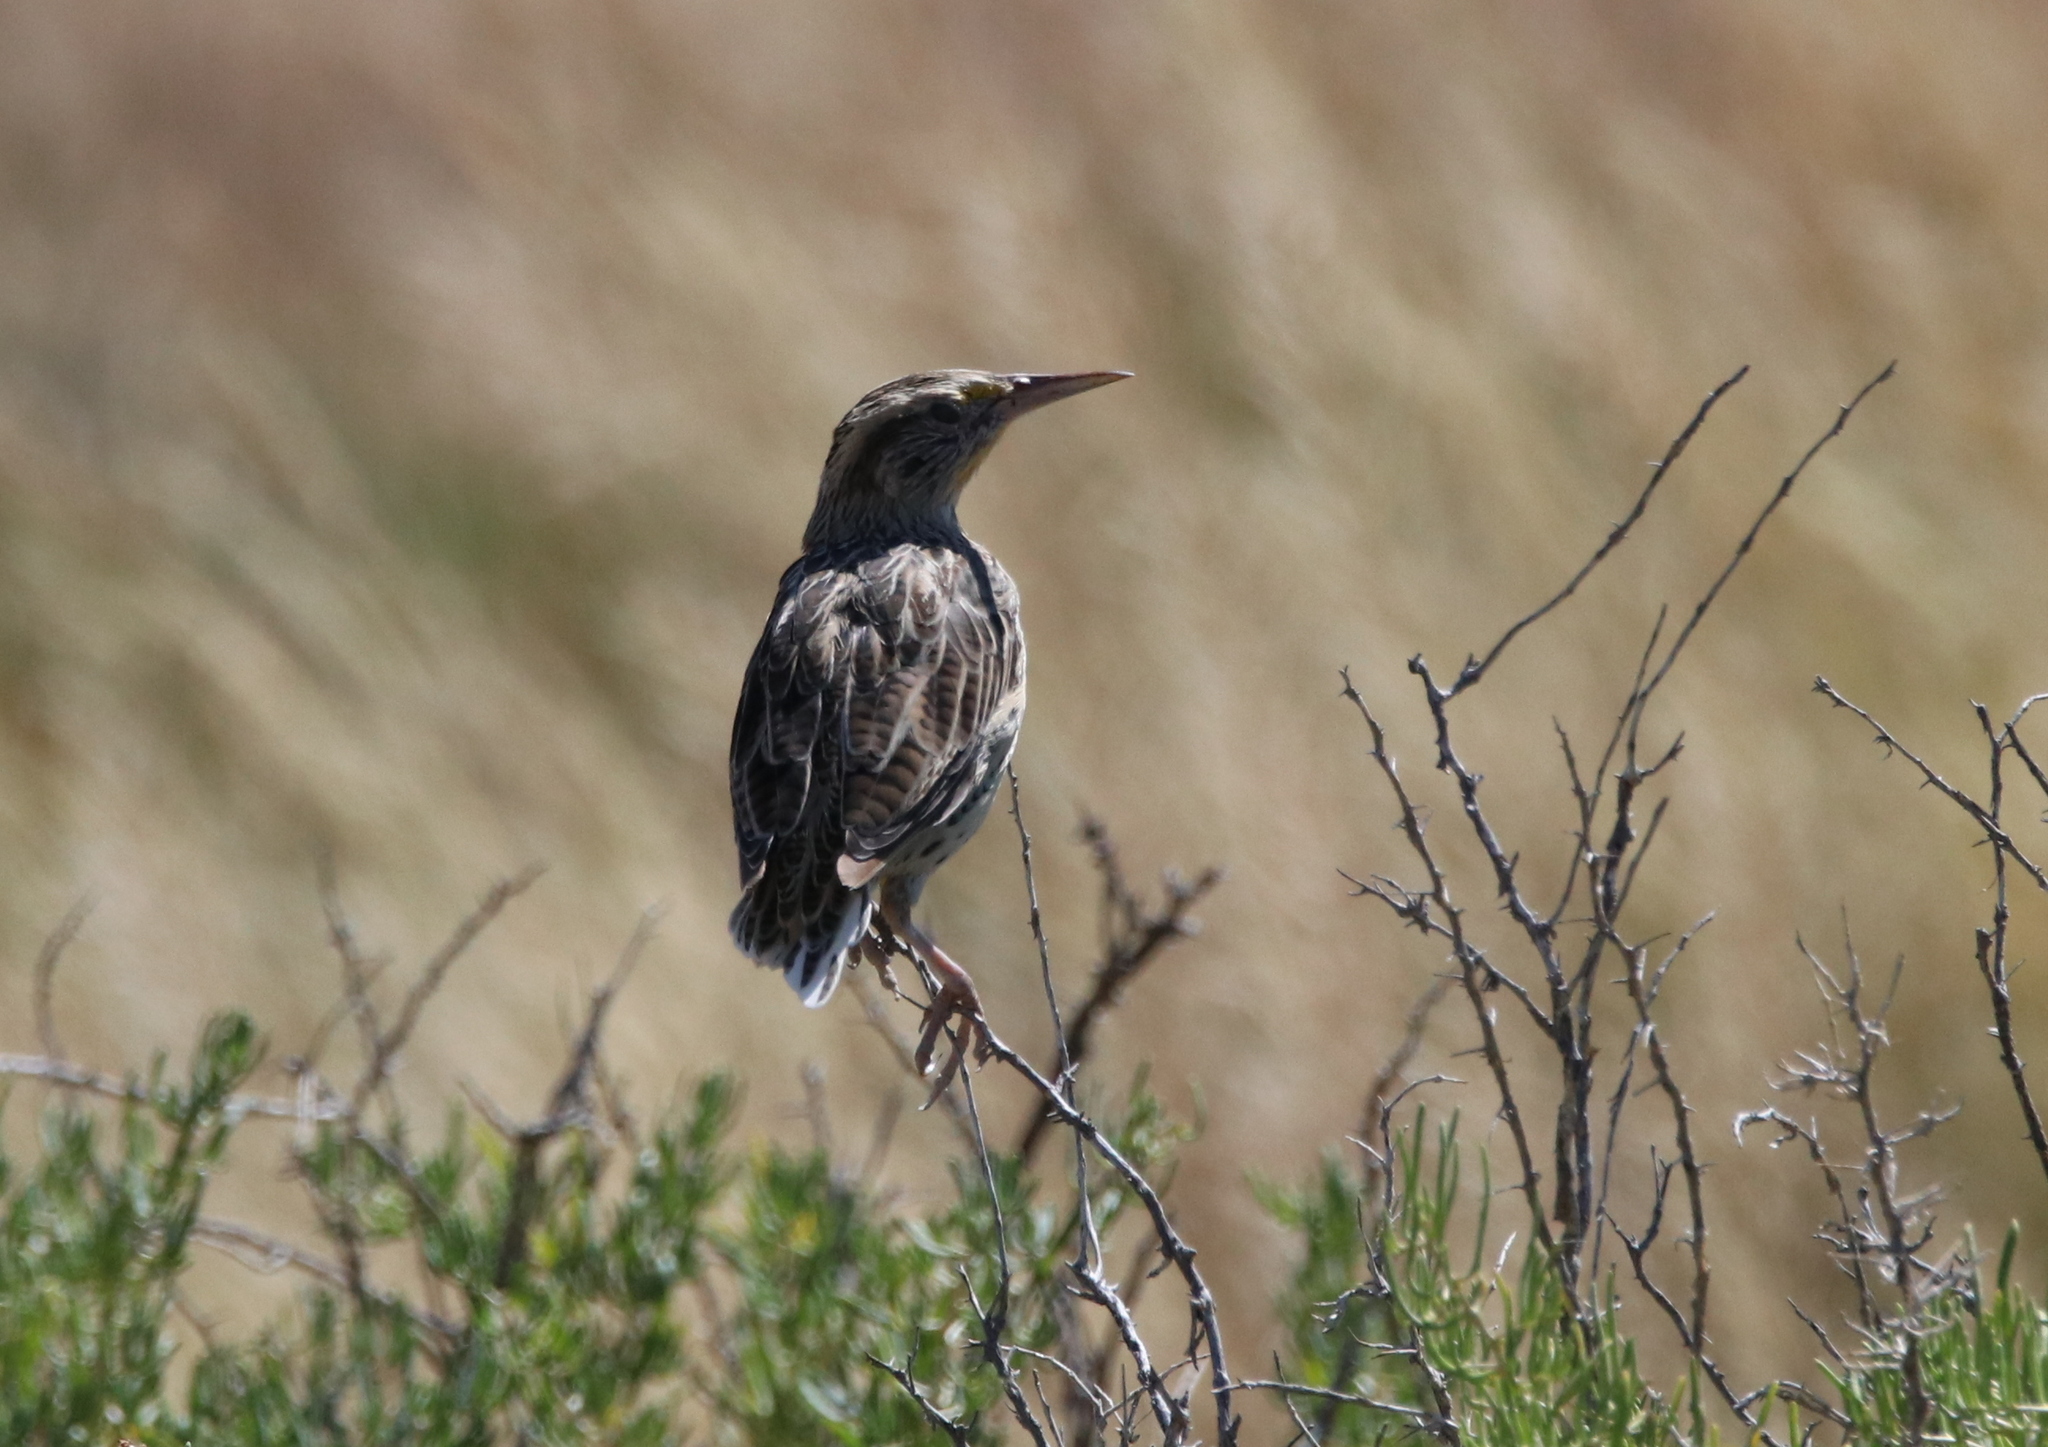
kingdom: Animalia
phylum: Chordata
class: Aves
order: Passeriformes
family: Icteridae
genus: Sturnella
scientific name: Sturnella neglecta
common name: Western meadowlark
